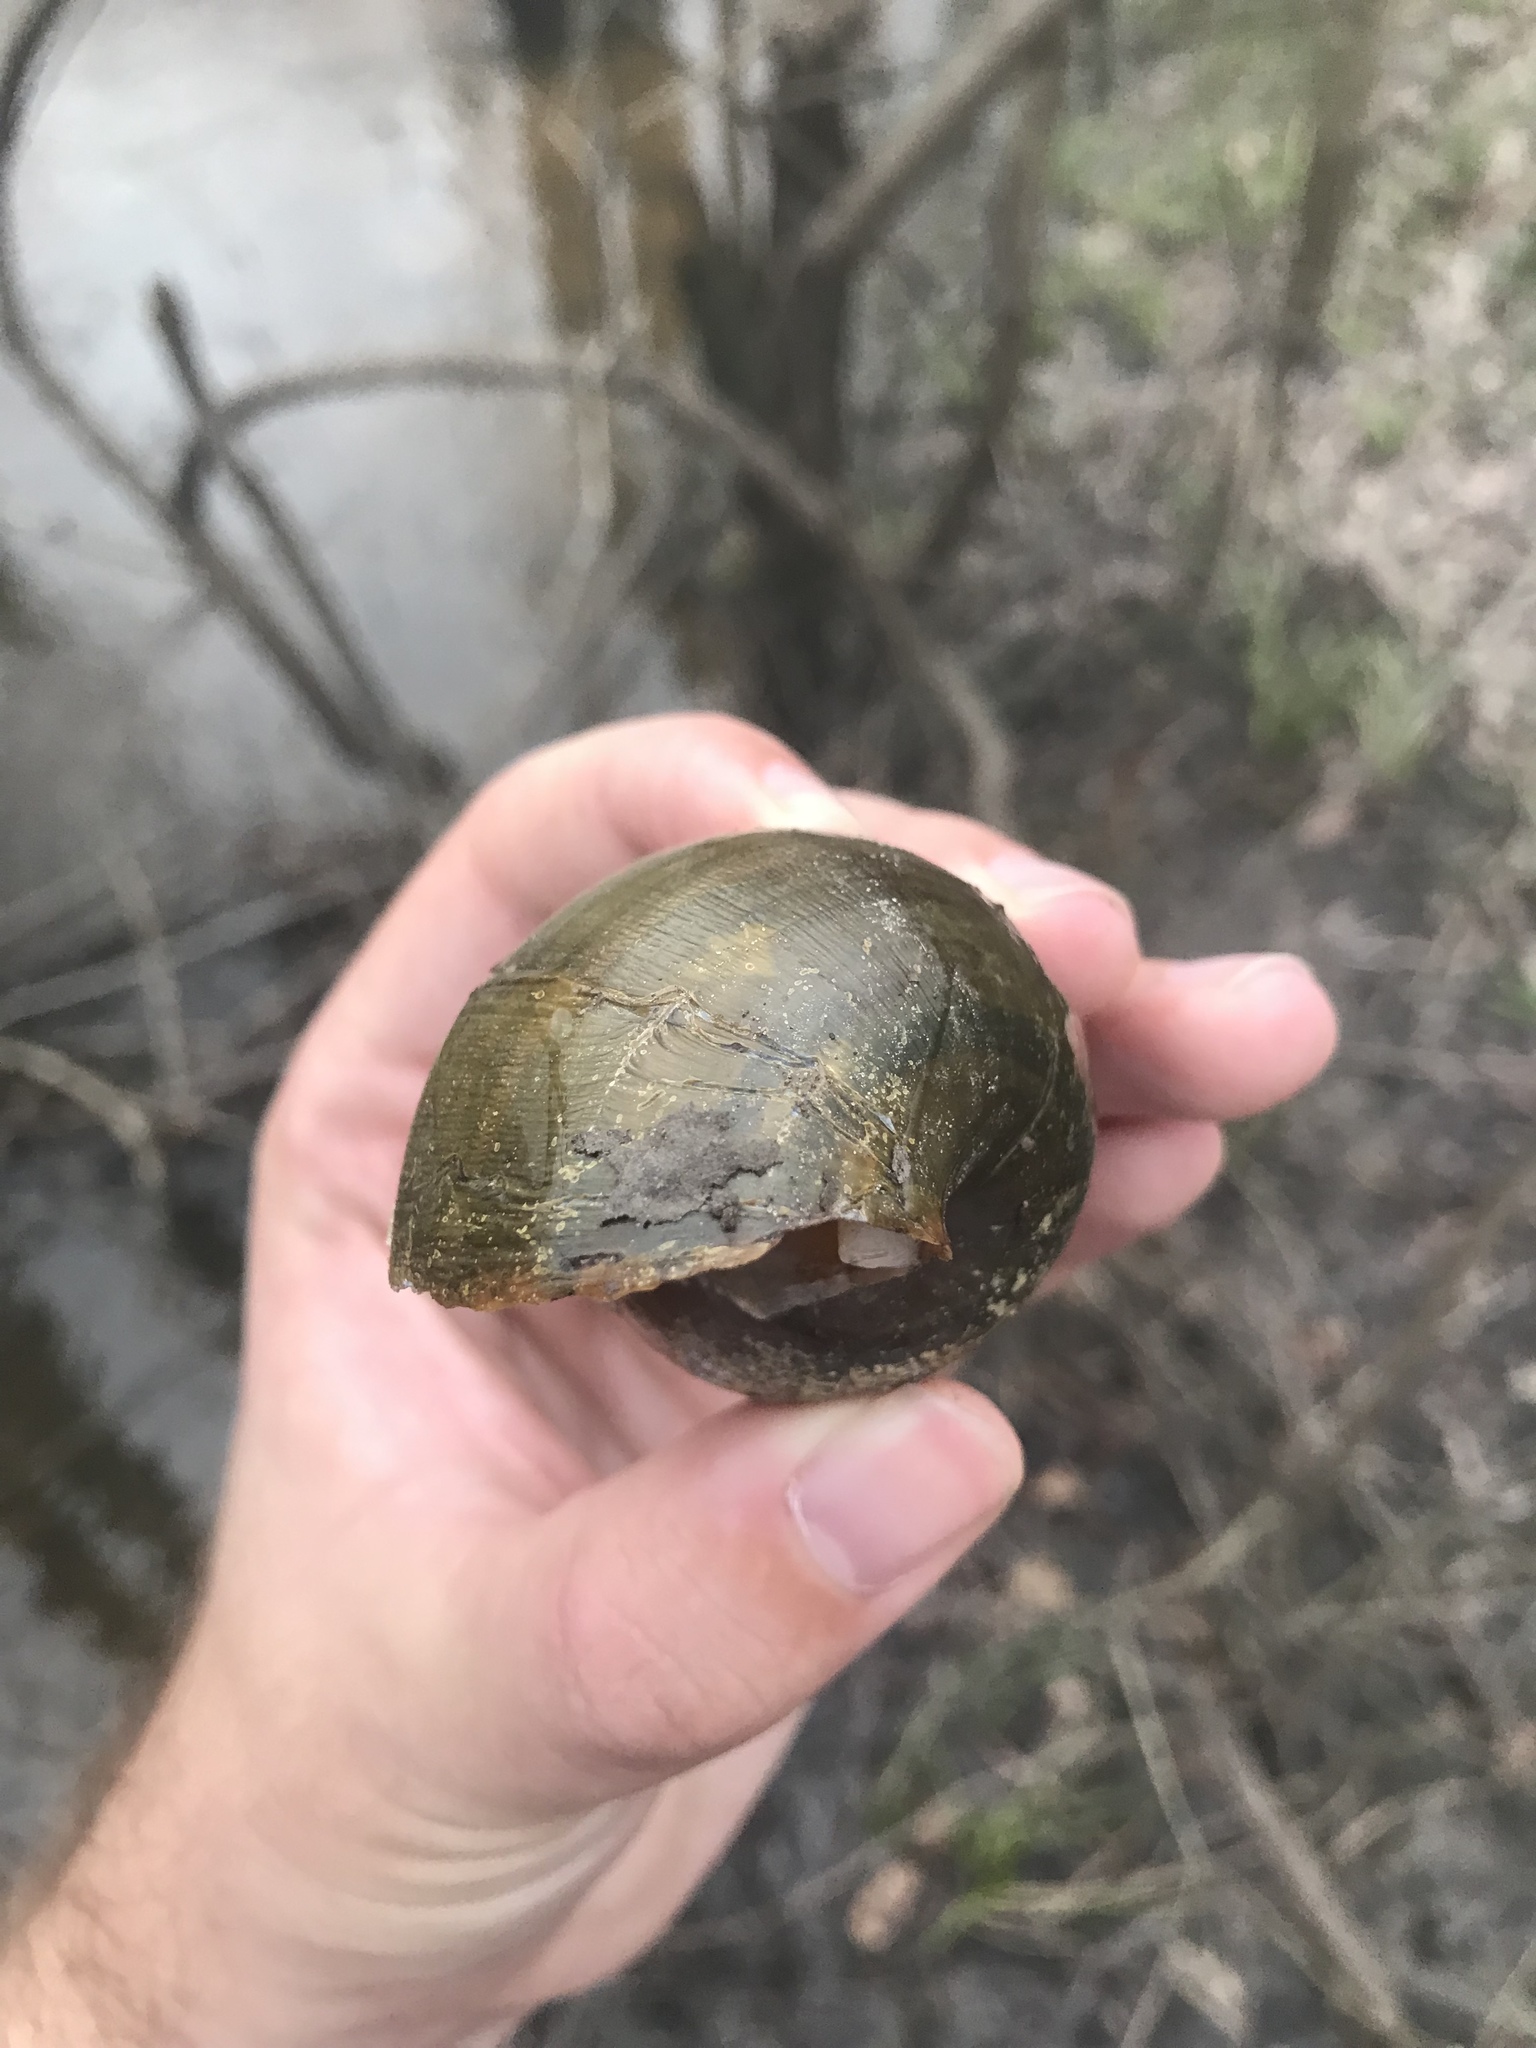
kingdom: Animalia
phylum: Mollusca
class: Gastropoda
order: Architaenioglossa
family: Ampullariidae
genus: Pomacea
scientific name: Pomacea canaliculata
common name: Channeled applesnail
